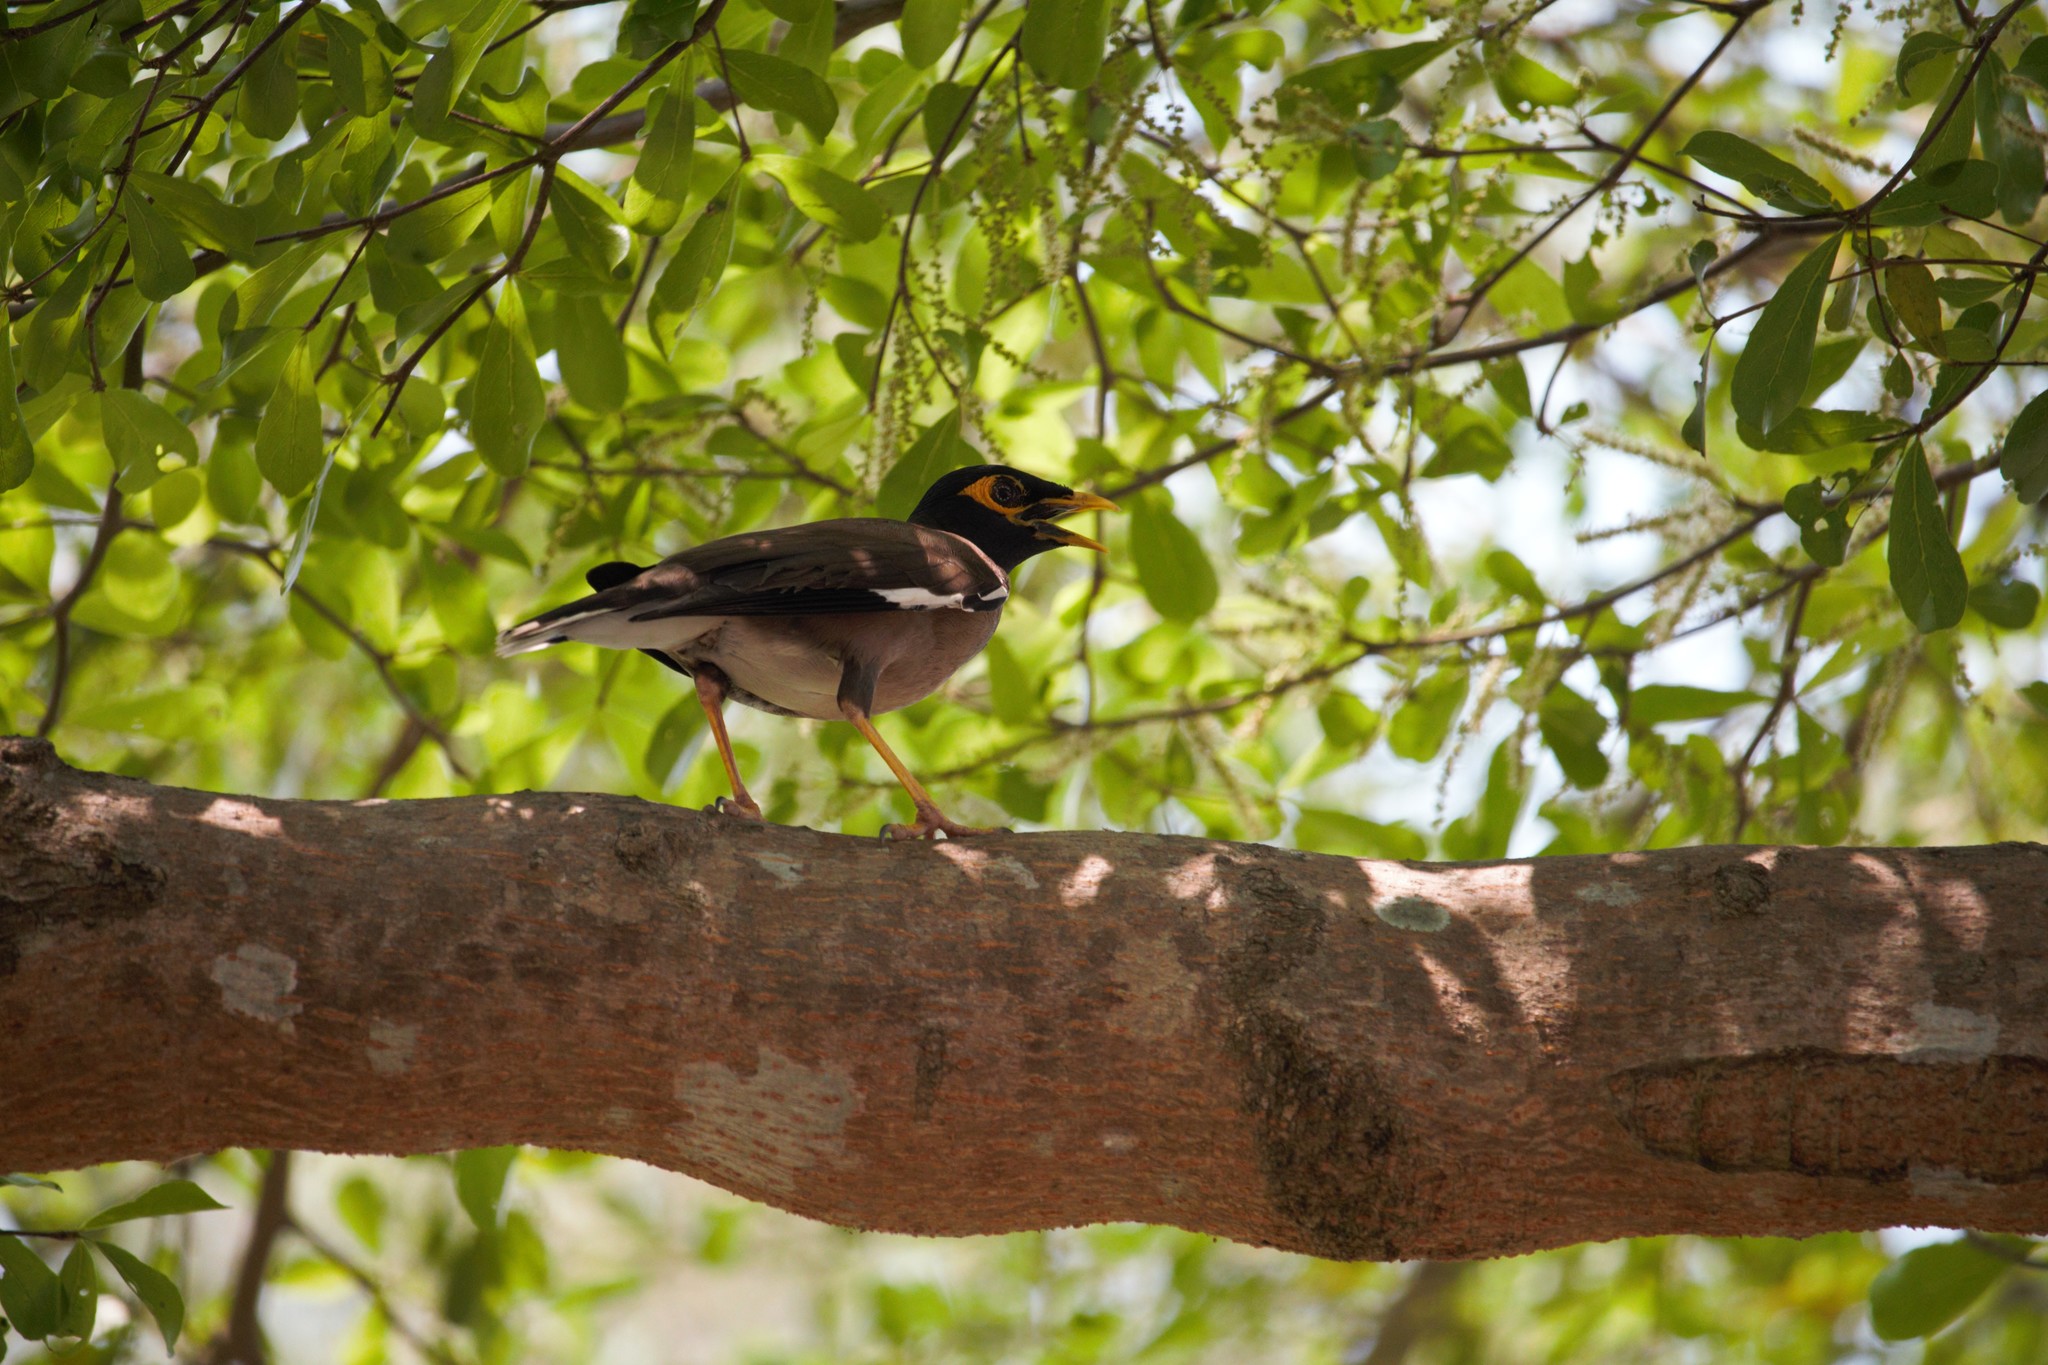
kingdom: Animalia
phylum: Chordata
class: Aves
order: Passeriformes
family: Sturnidae
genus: Acridotheres
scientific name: Acridotheres tristis
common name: Common myna
